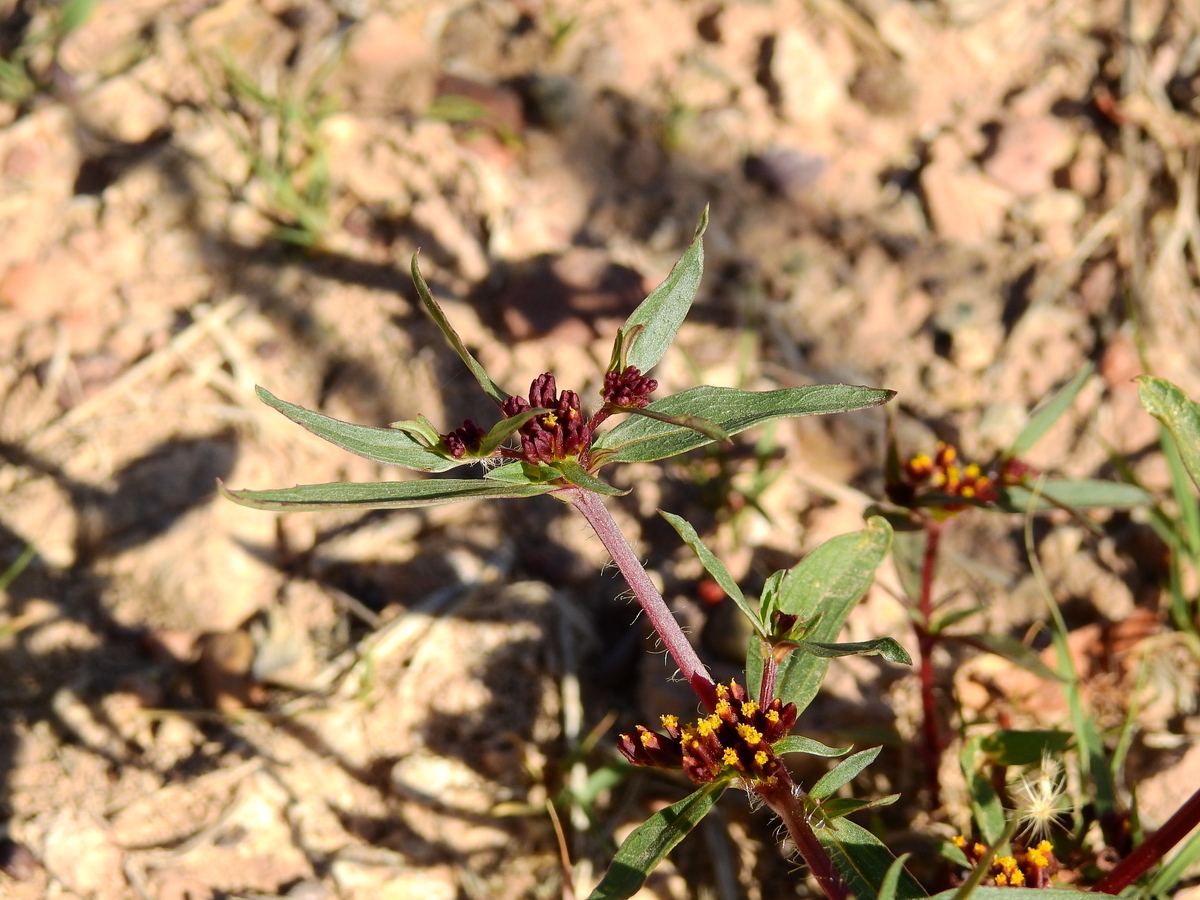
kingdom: Plantae
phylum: Tracheophyta
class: Magnoliopsida
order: Asterales
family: Asteraceae
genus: Flaveria
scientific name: Flaveria haumannii
